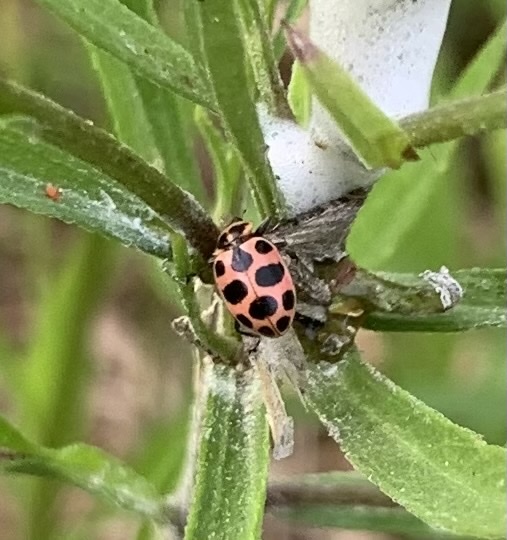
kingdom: Animalia
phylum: Arthropoda
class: Insecta
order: Coleoptera
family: Coccinellidae
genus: Coleomegilla
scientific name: Coleomegilla maculata
